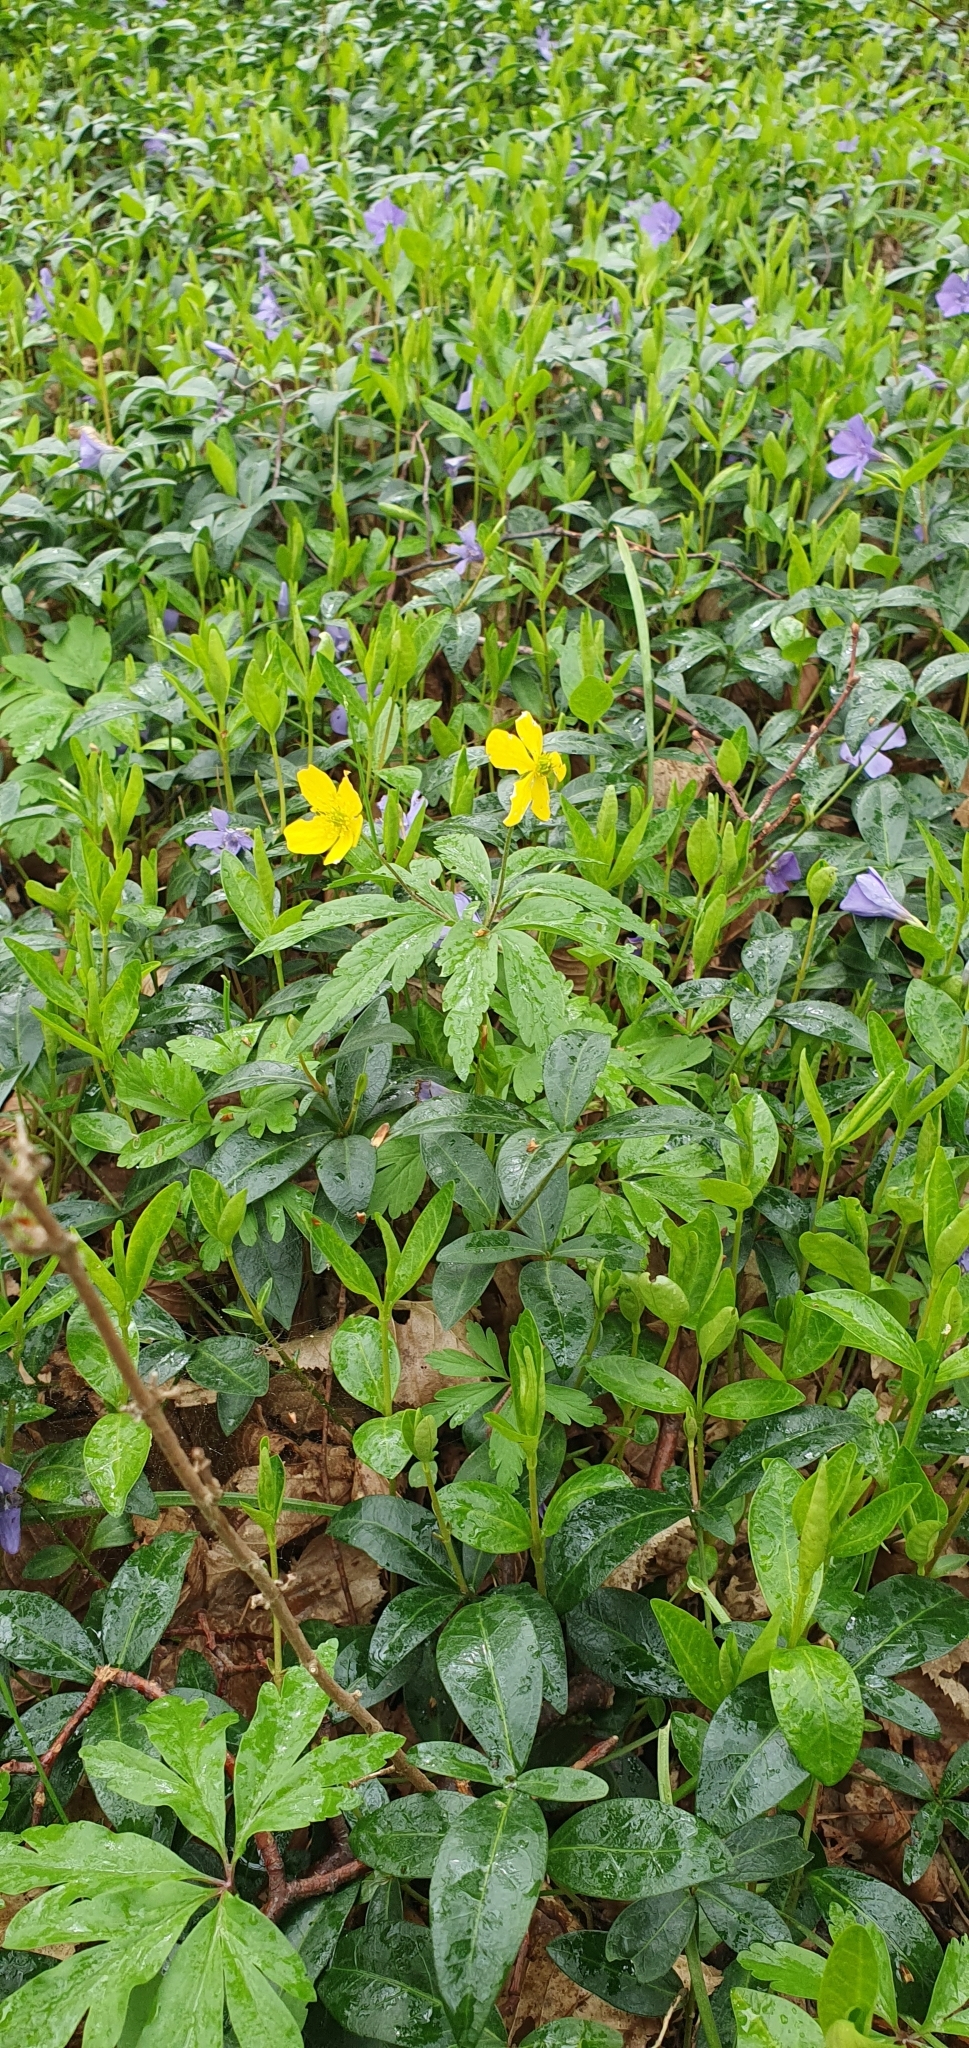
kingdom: Plantae
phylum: Tracheophyta
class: Magnoliopsida
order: Ranunculales
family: Ranunculaceae
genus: Anemone
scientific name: Anemone ranunculoides
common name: Yellow anemone
